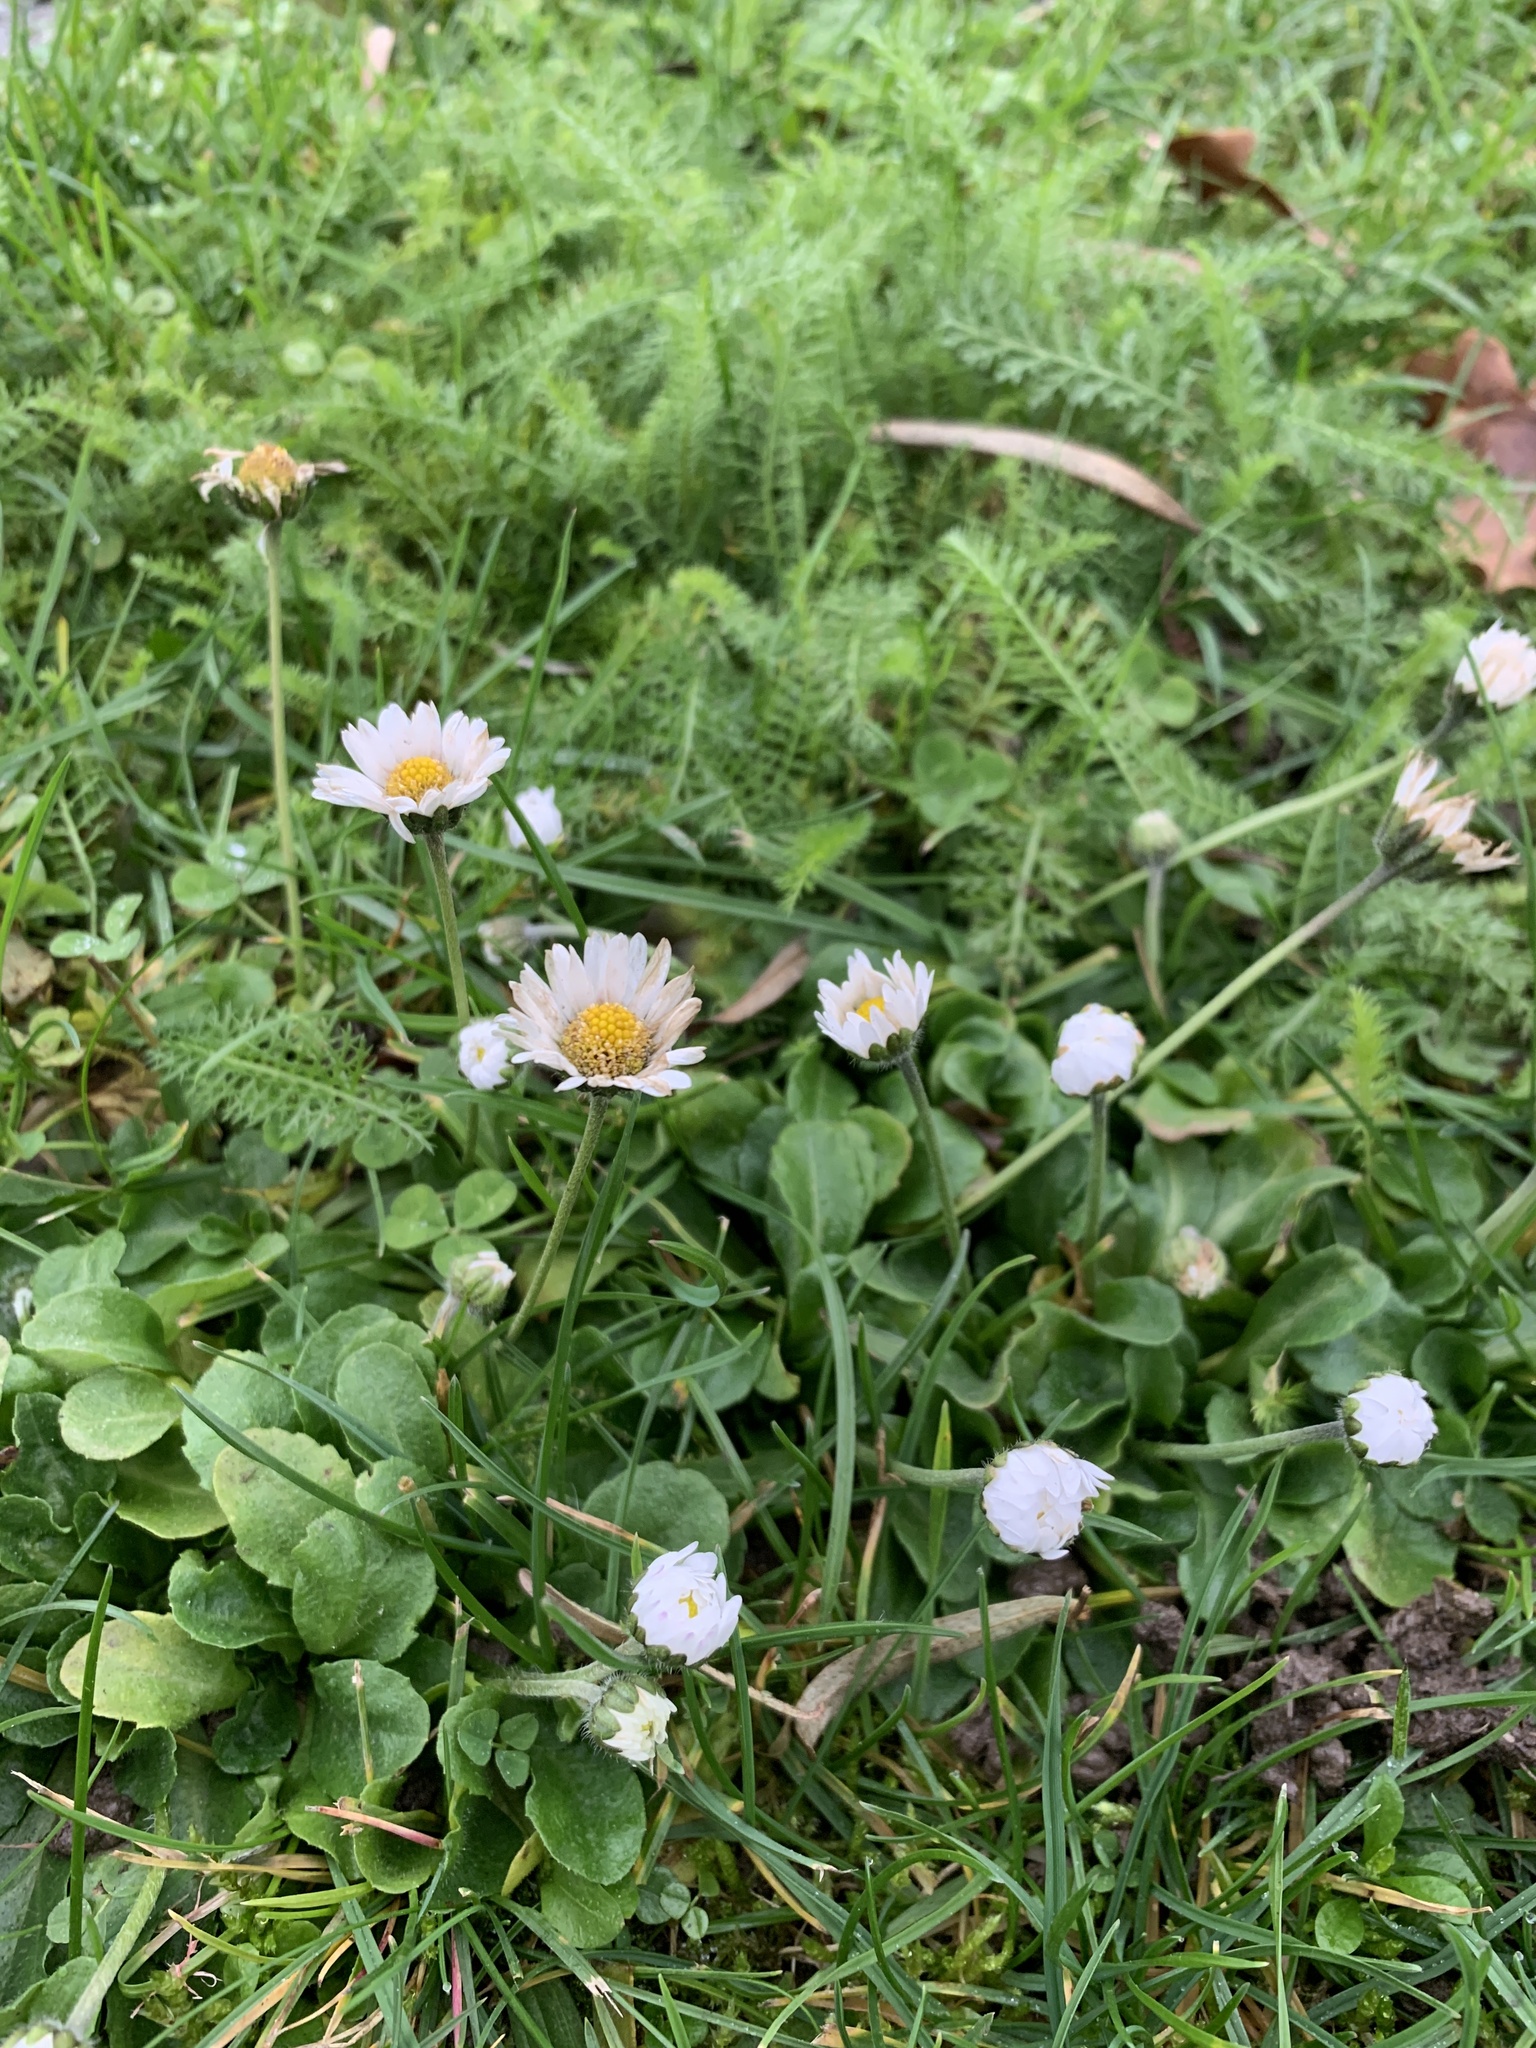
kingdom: Plantae
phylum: Tracheophyta
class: Magnoliopsida
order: Asterales
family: Asteraceae
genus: Bellis
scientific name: Bellis perennis
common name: Lawndaisy
